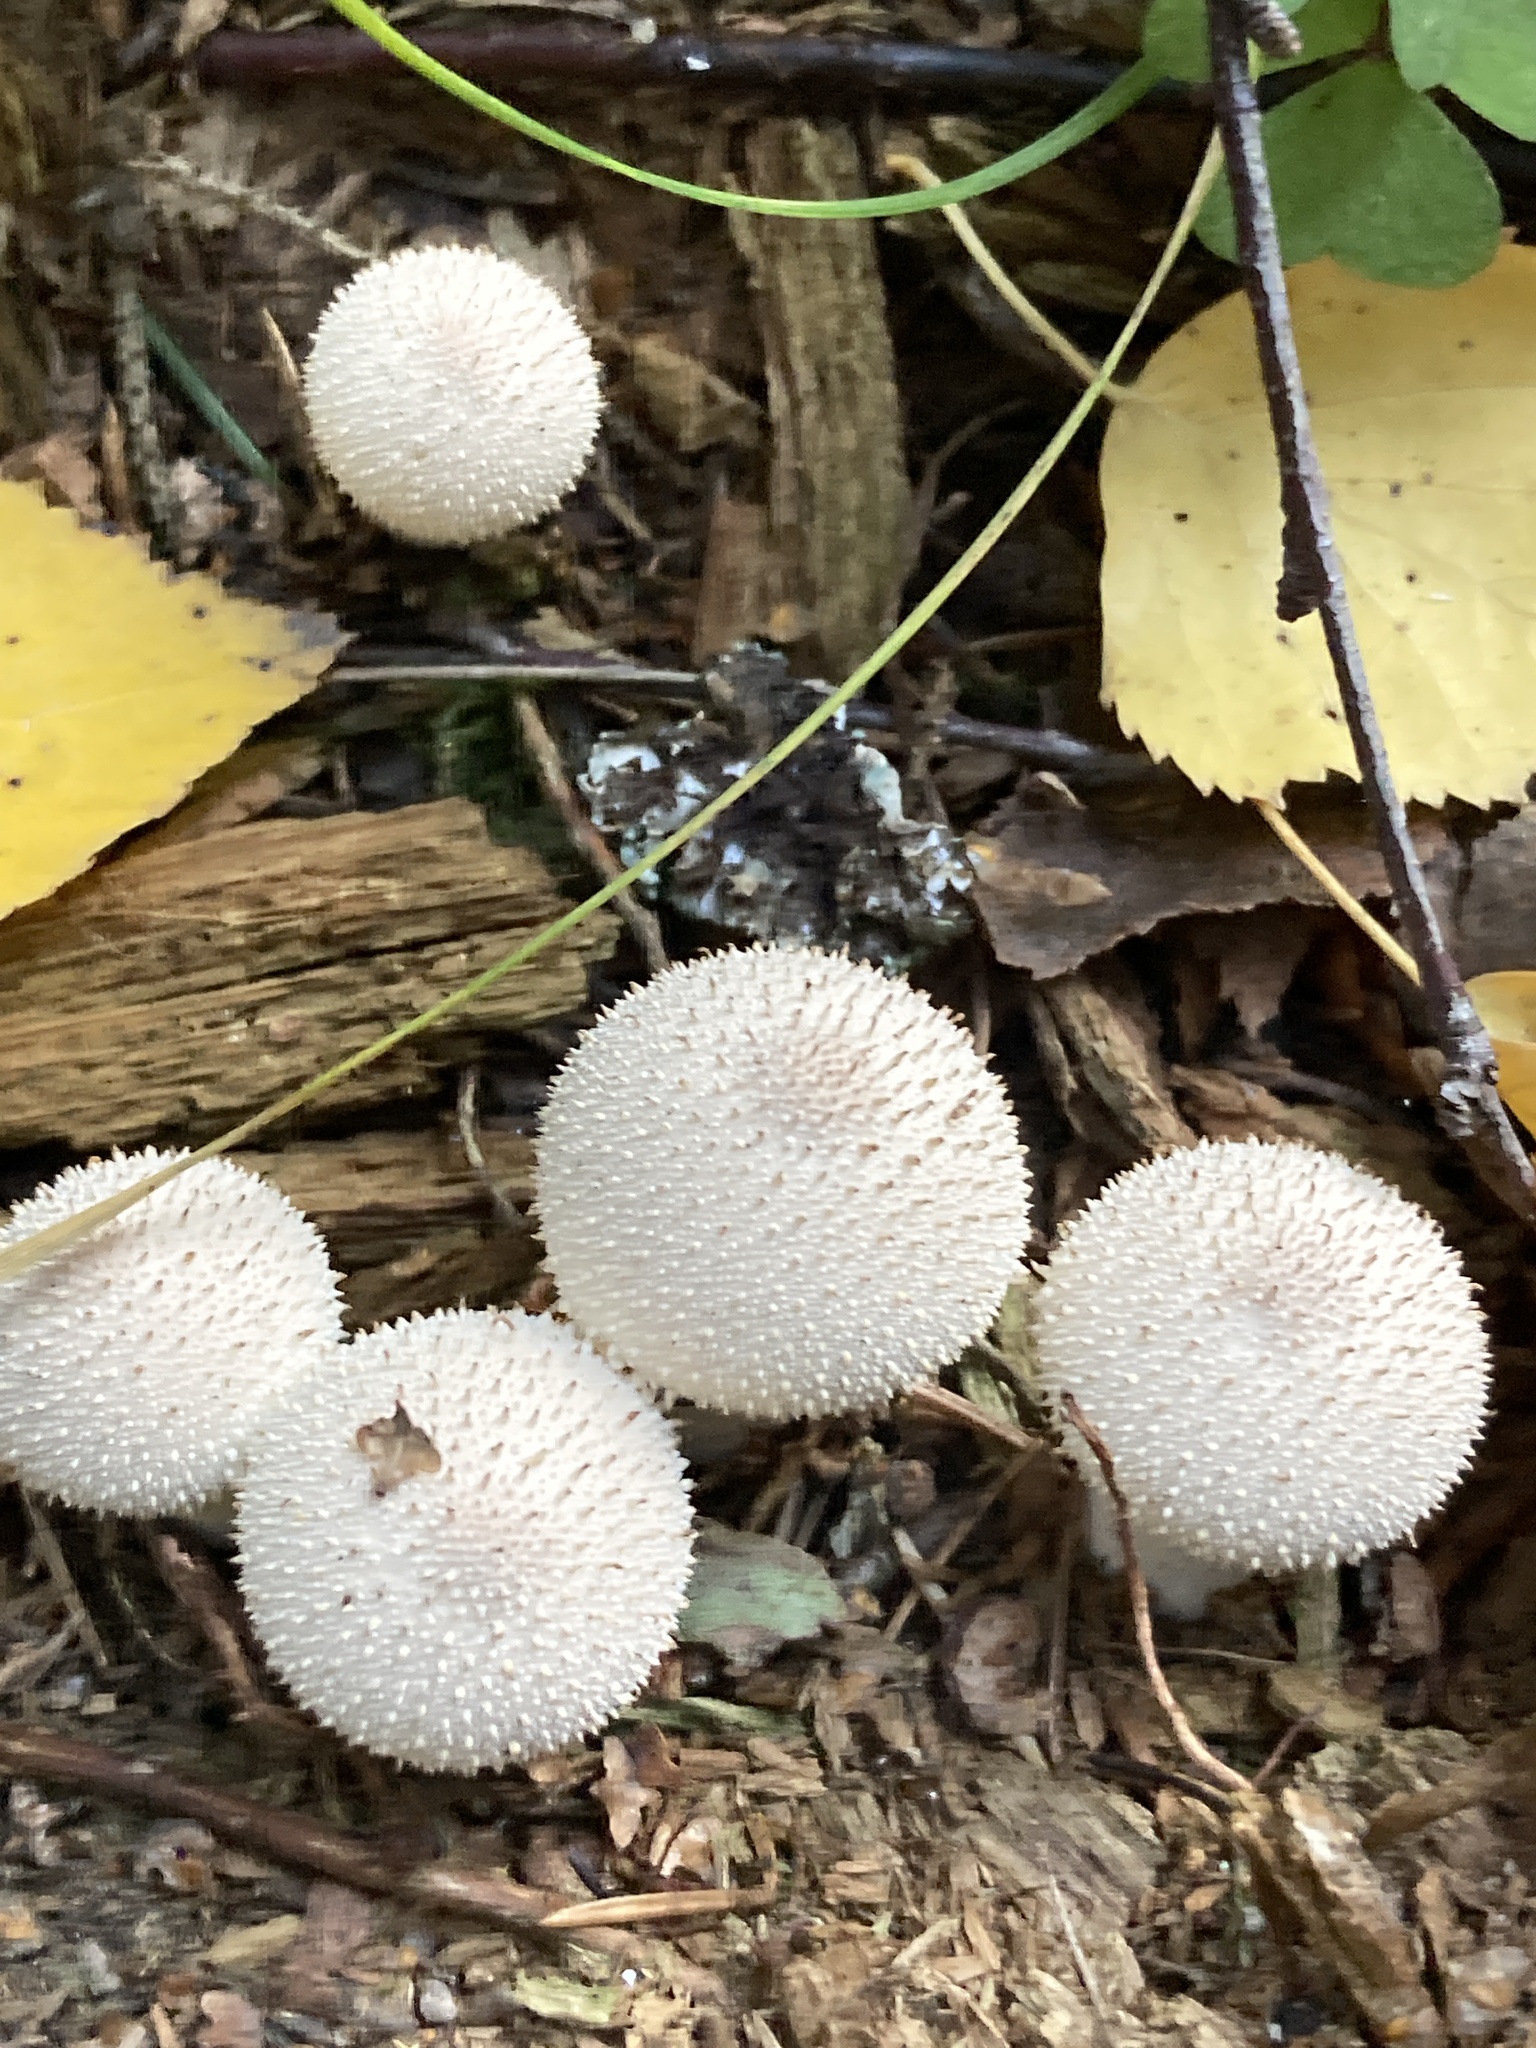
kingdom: Fungi
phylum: Basidiomycota
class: Agaricomycetes
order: Agaricales
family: Lycoperdaceae
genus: Lycoperdon
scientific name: Lycoperdon perlatum
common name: Common puffball
